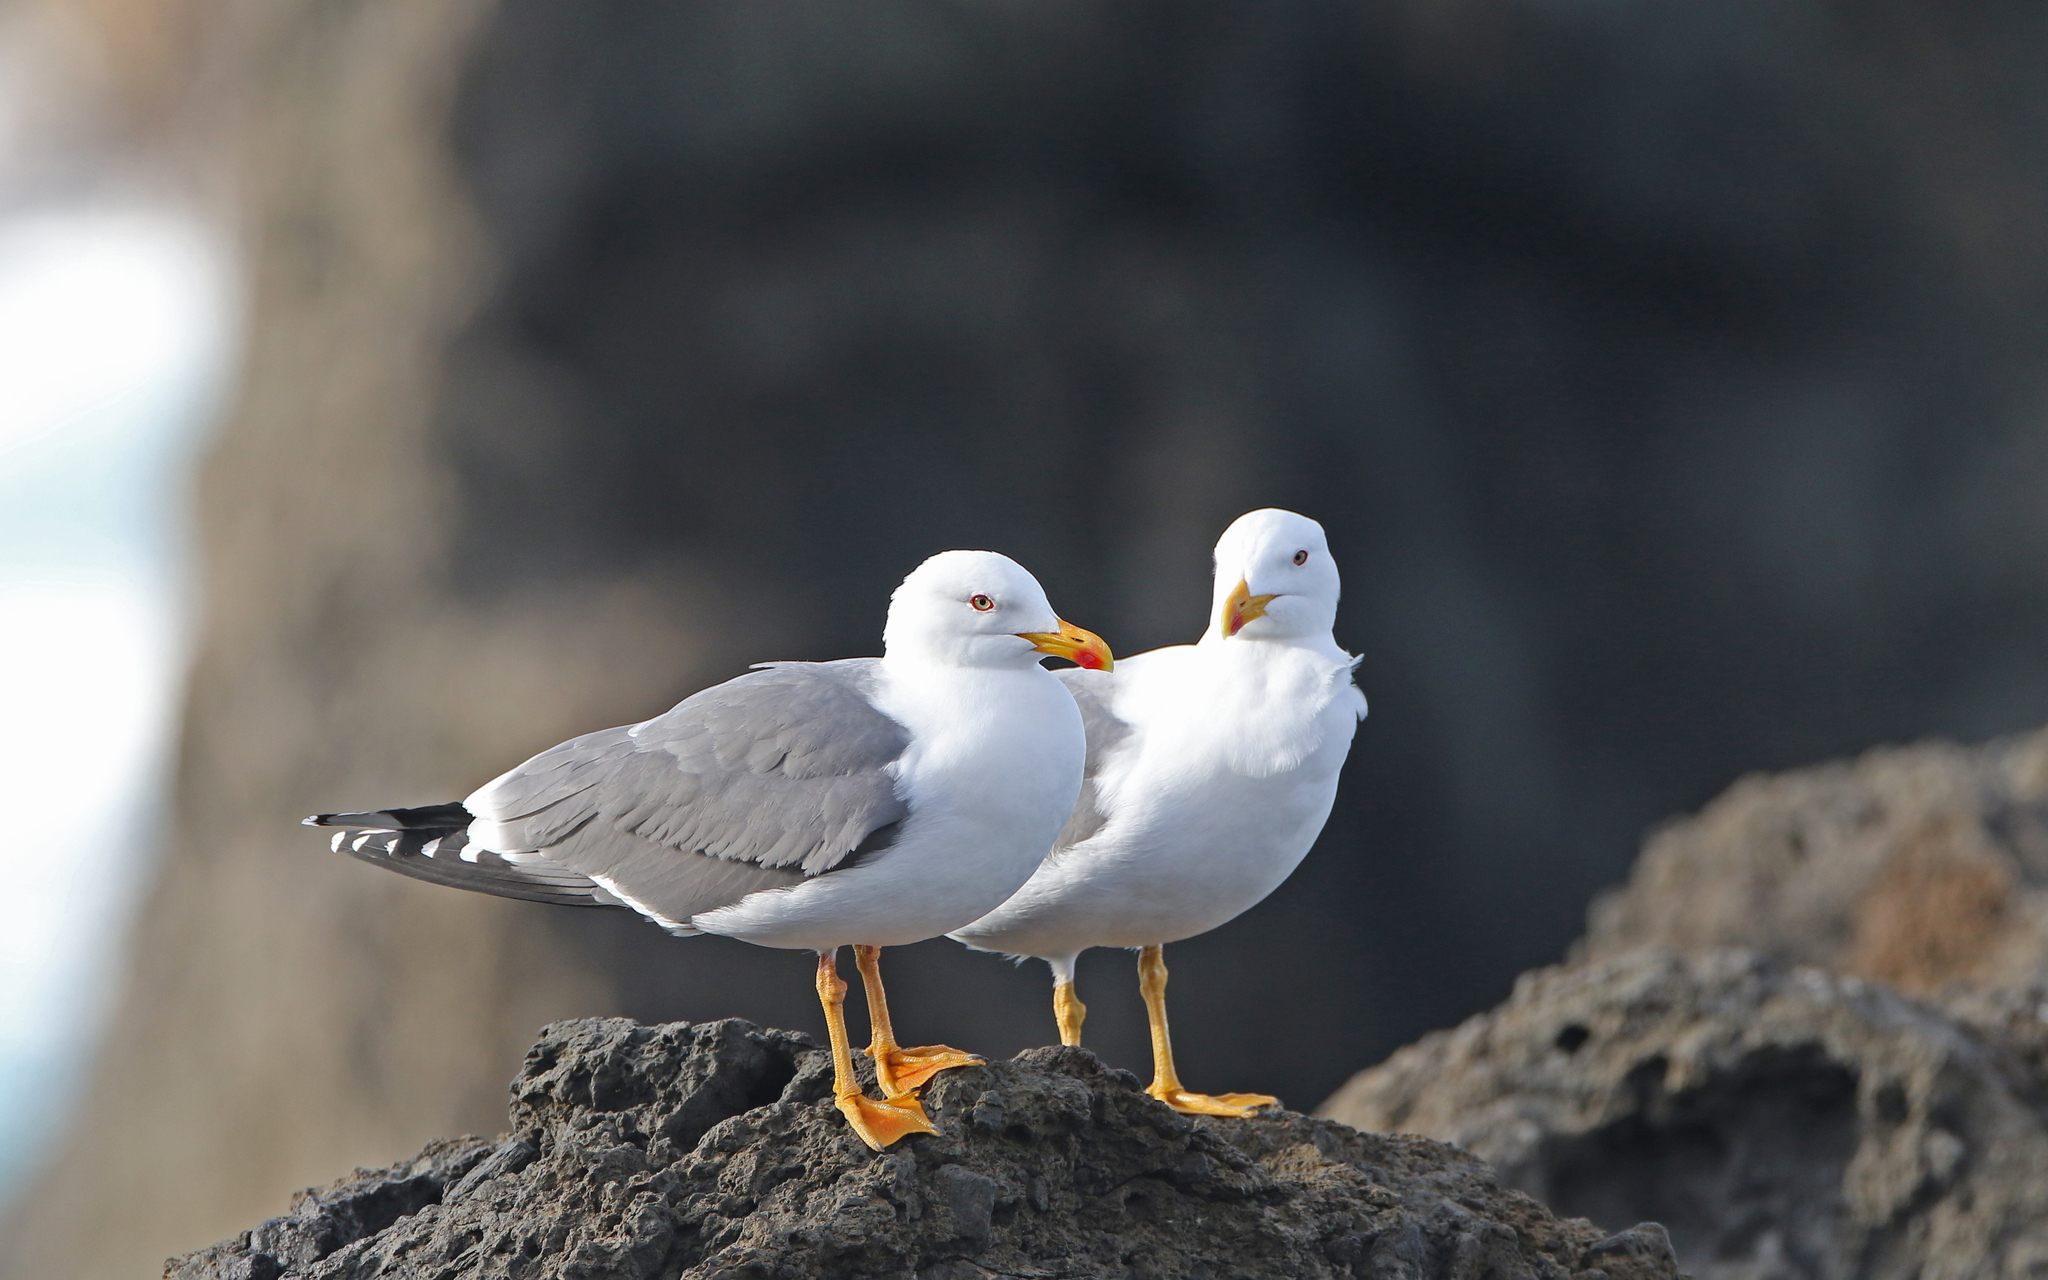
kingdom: Animalia
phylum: Chordata
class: Aves
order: Charadriiformes
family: Laridae
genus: Larus
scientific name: Larus michahellis
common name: Yellow-legged gull
